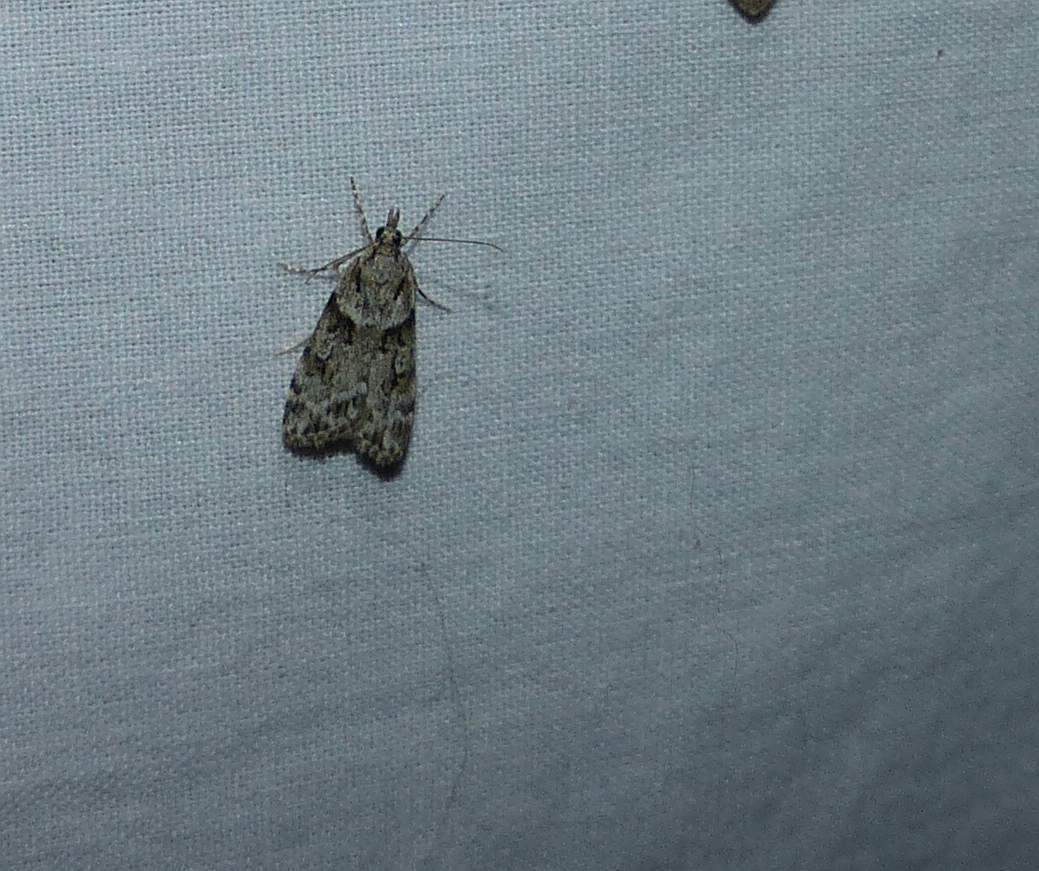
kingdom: Animalia
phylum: Arthropoda
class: Insecta
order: Lepidoptera
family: Crambidae
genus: Scoparia
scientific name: Scoparia biplagialis
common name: Double-striped scoparia moth
